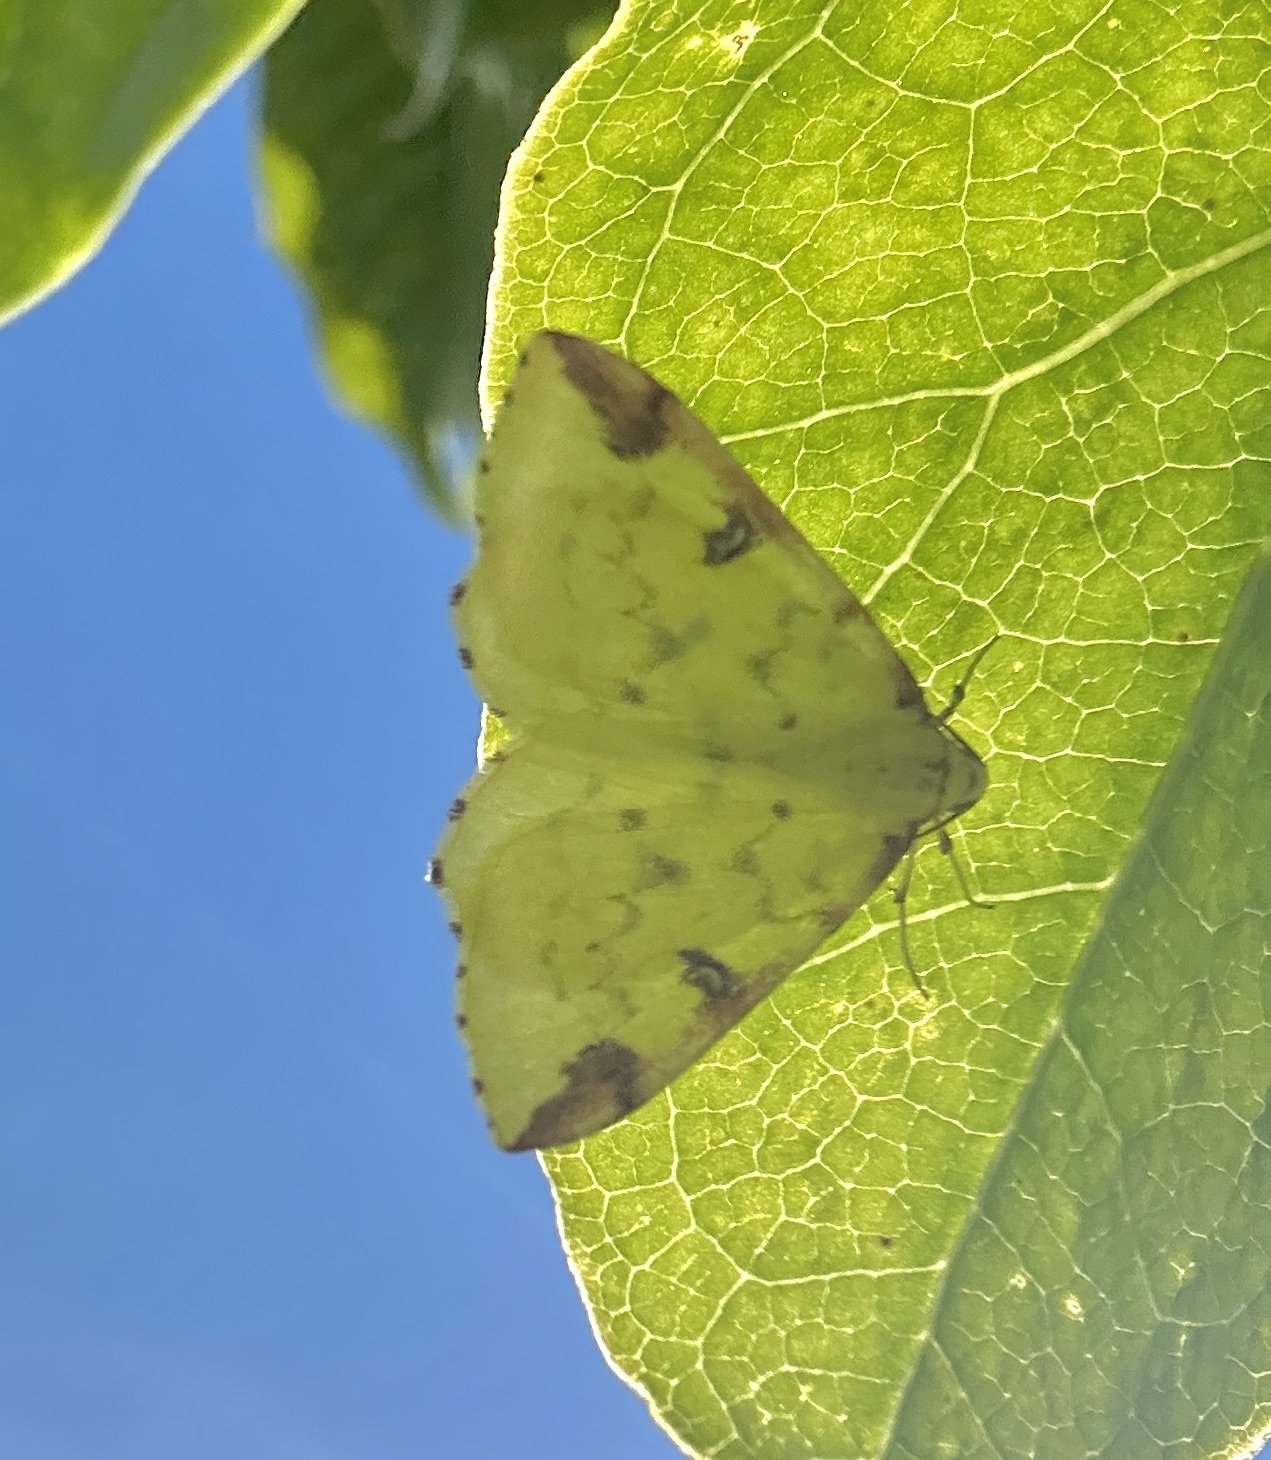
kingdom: Animalia
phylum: Arthropoda
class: Insecta
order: Lepidoptera
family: Geometridae
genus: Opisthograptis
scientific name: Opisthograptis luteolata
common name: Brimstone moth
